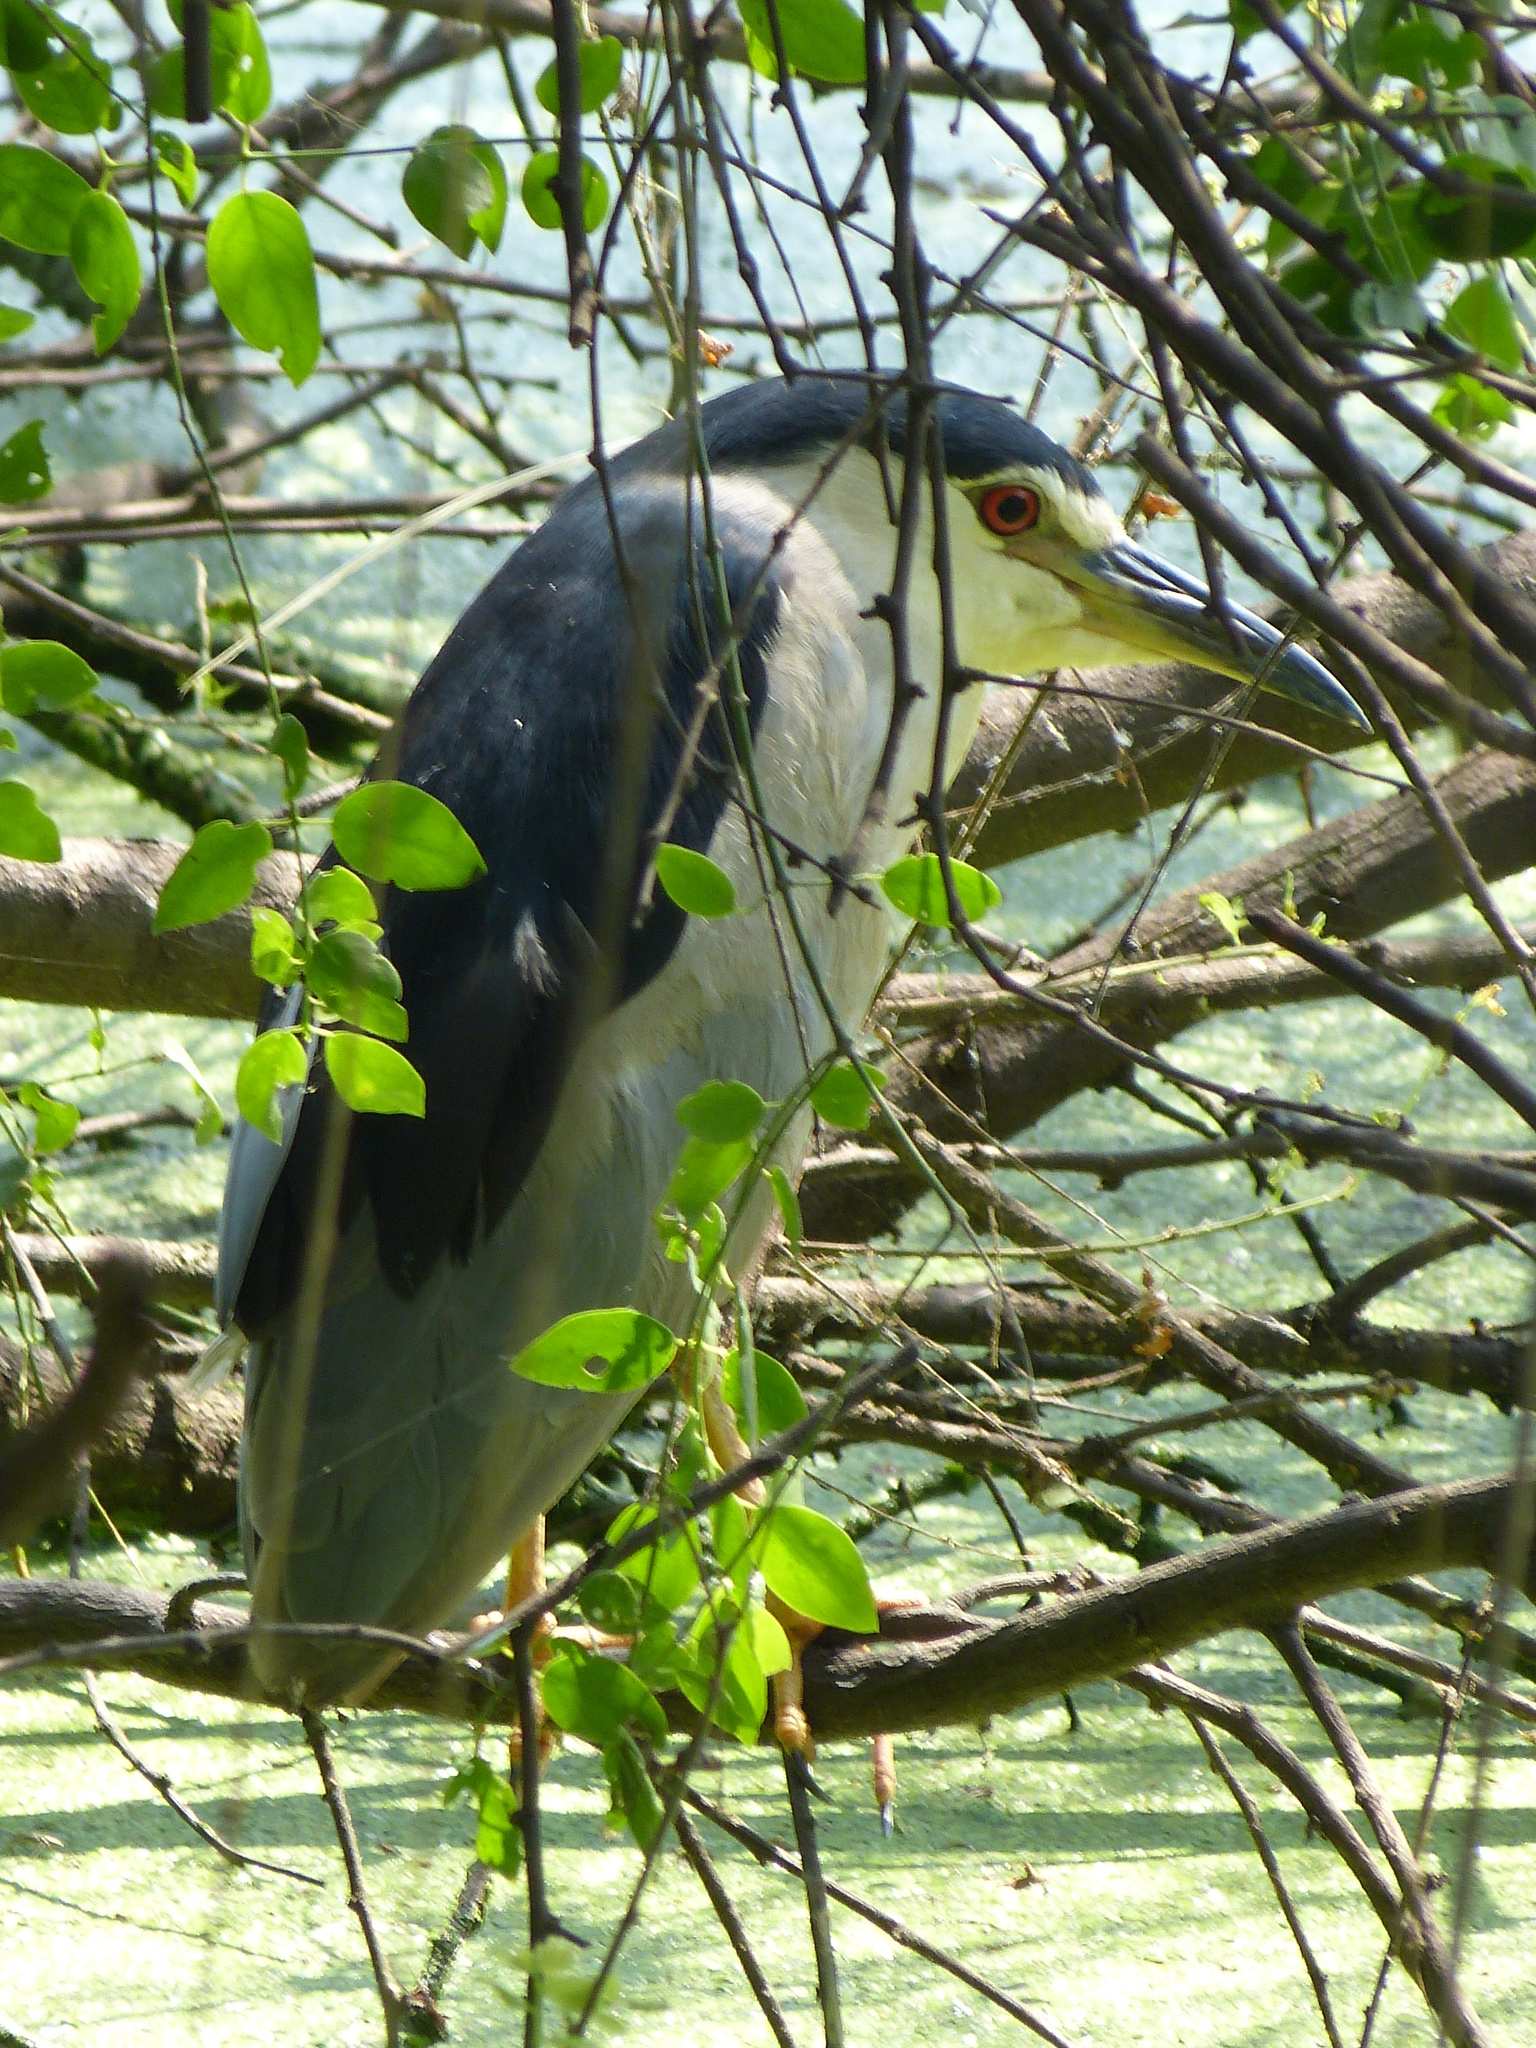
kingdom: Animalia
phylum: Chordata
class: Aves
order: Pelecaniformes
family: Ardeidae
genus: Nycticorax
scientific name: Nycticorax nycticorax
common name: Black-crowned night heron
